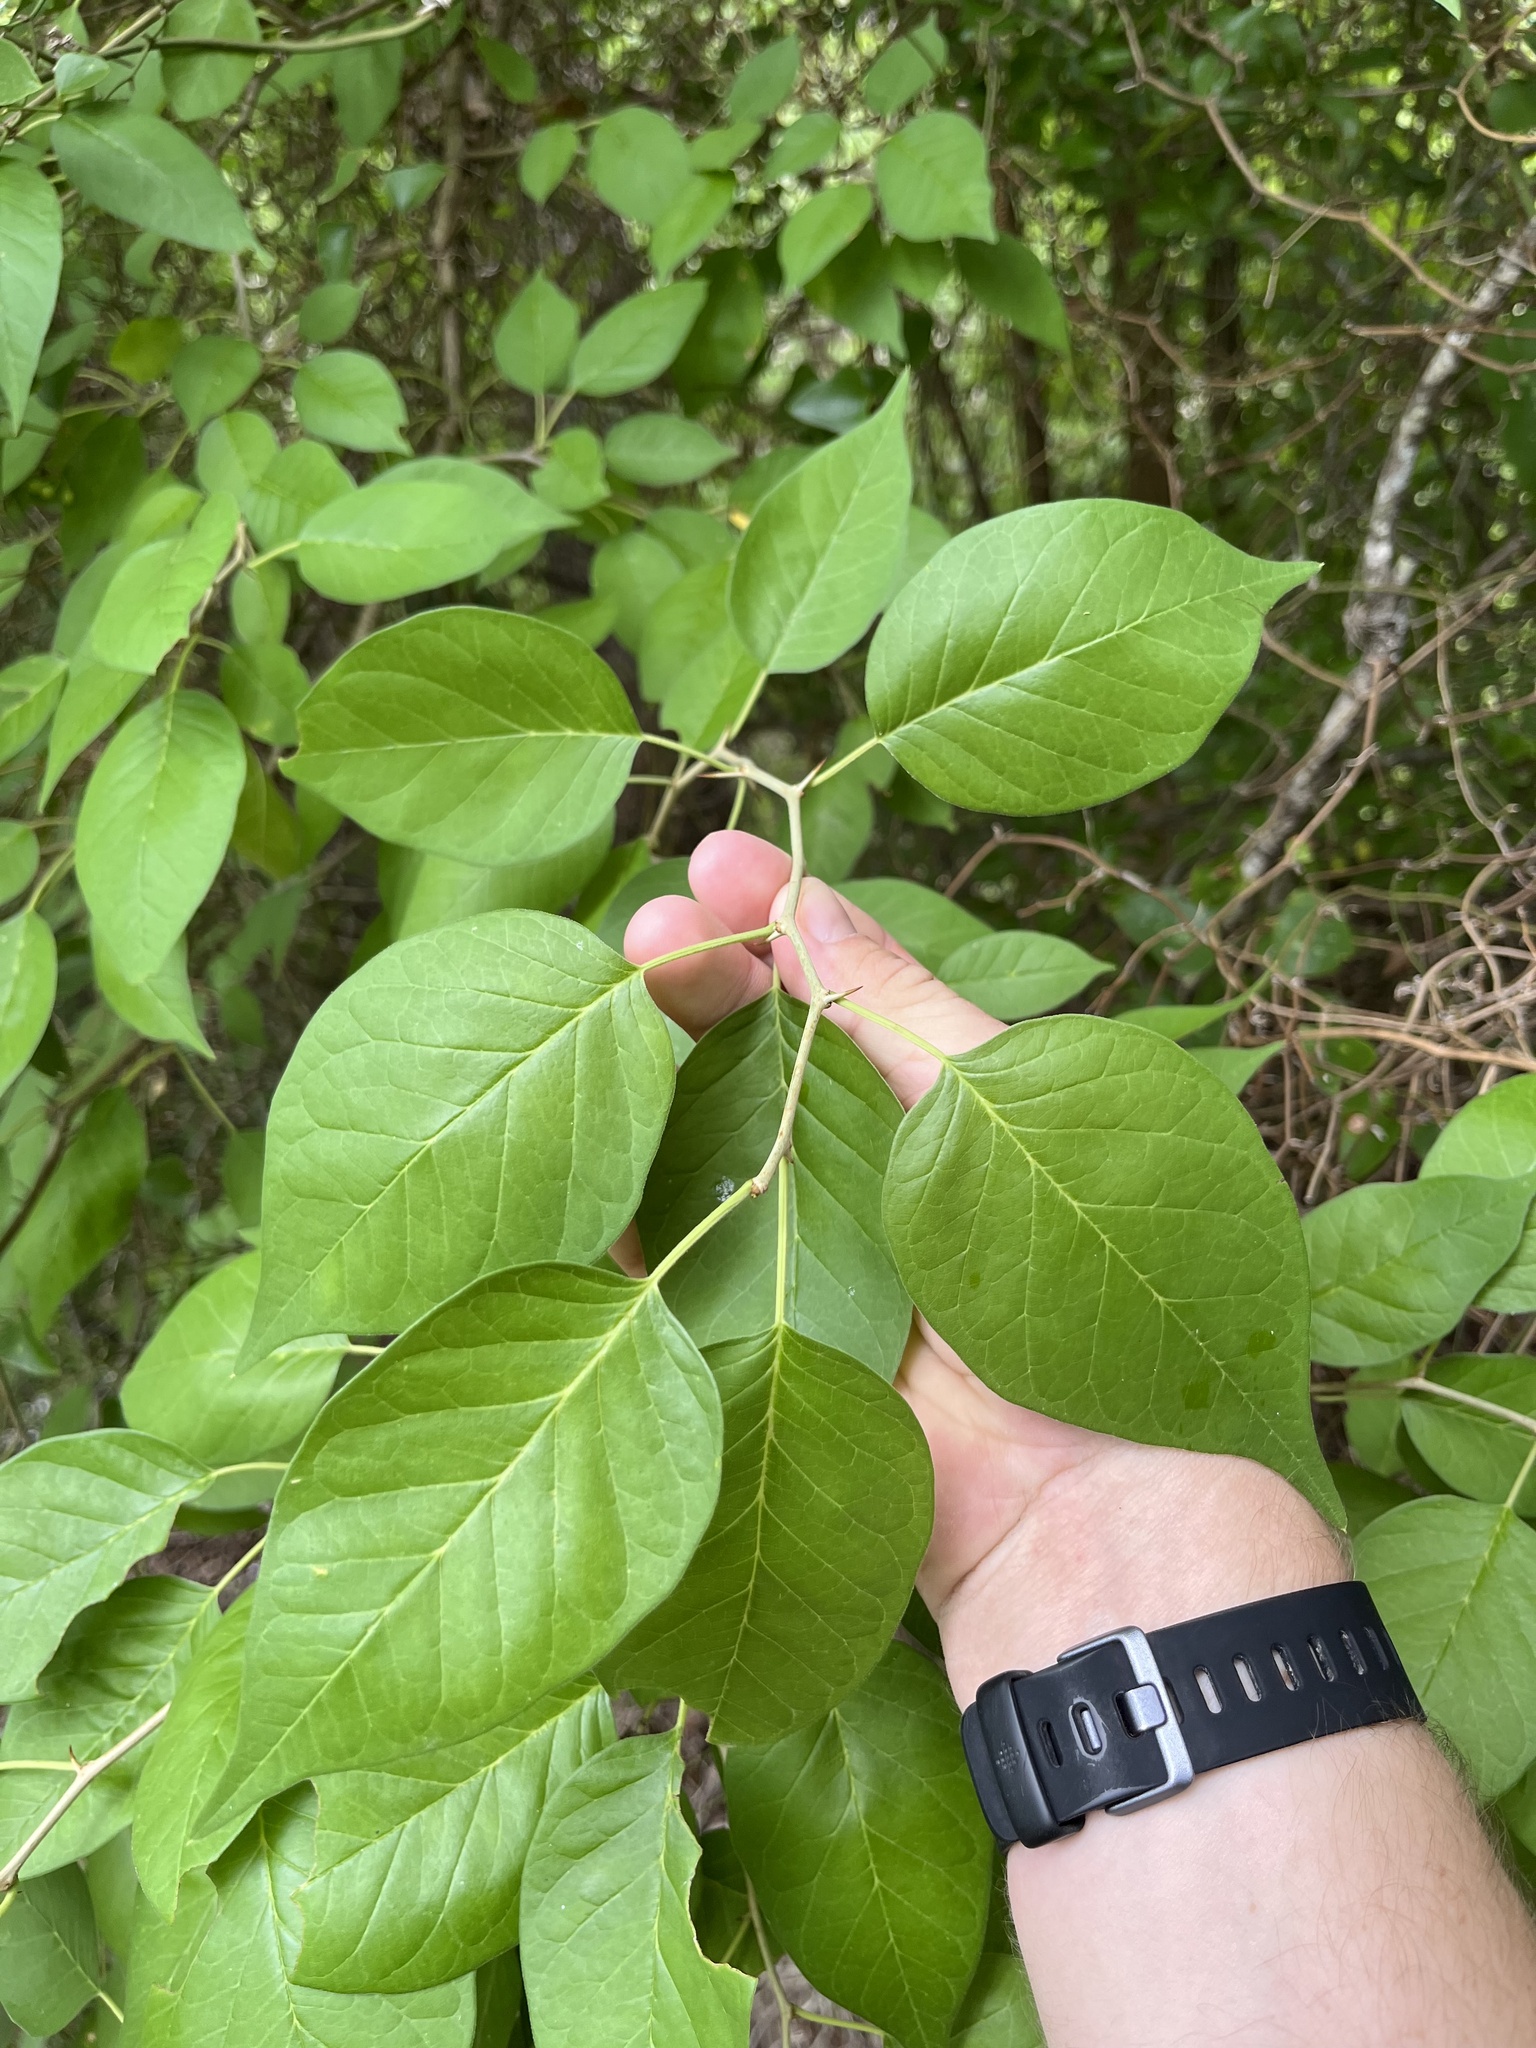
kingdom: Plantae
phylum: Tracheophyta
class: Magnoliopsida
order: Rosales
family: Moraceae
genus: Maclura
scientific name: Maclura pomifera
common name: Osage-orange
